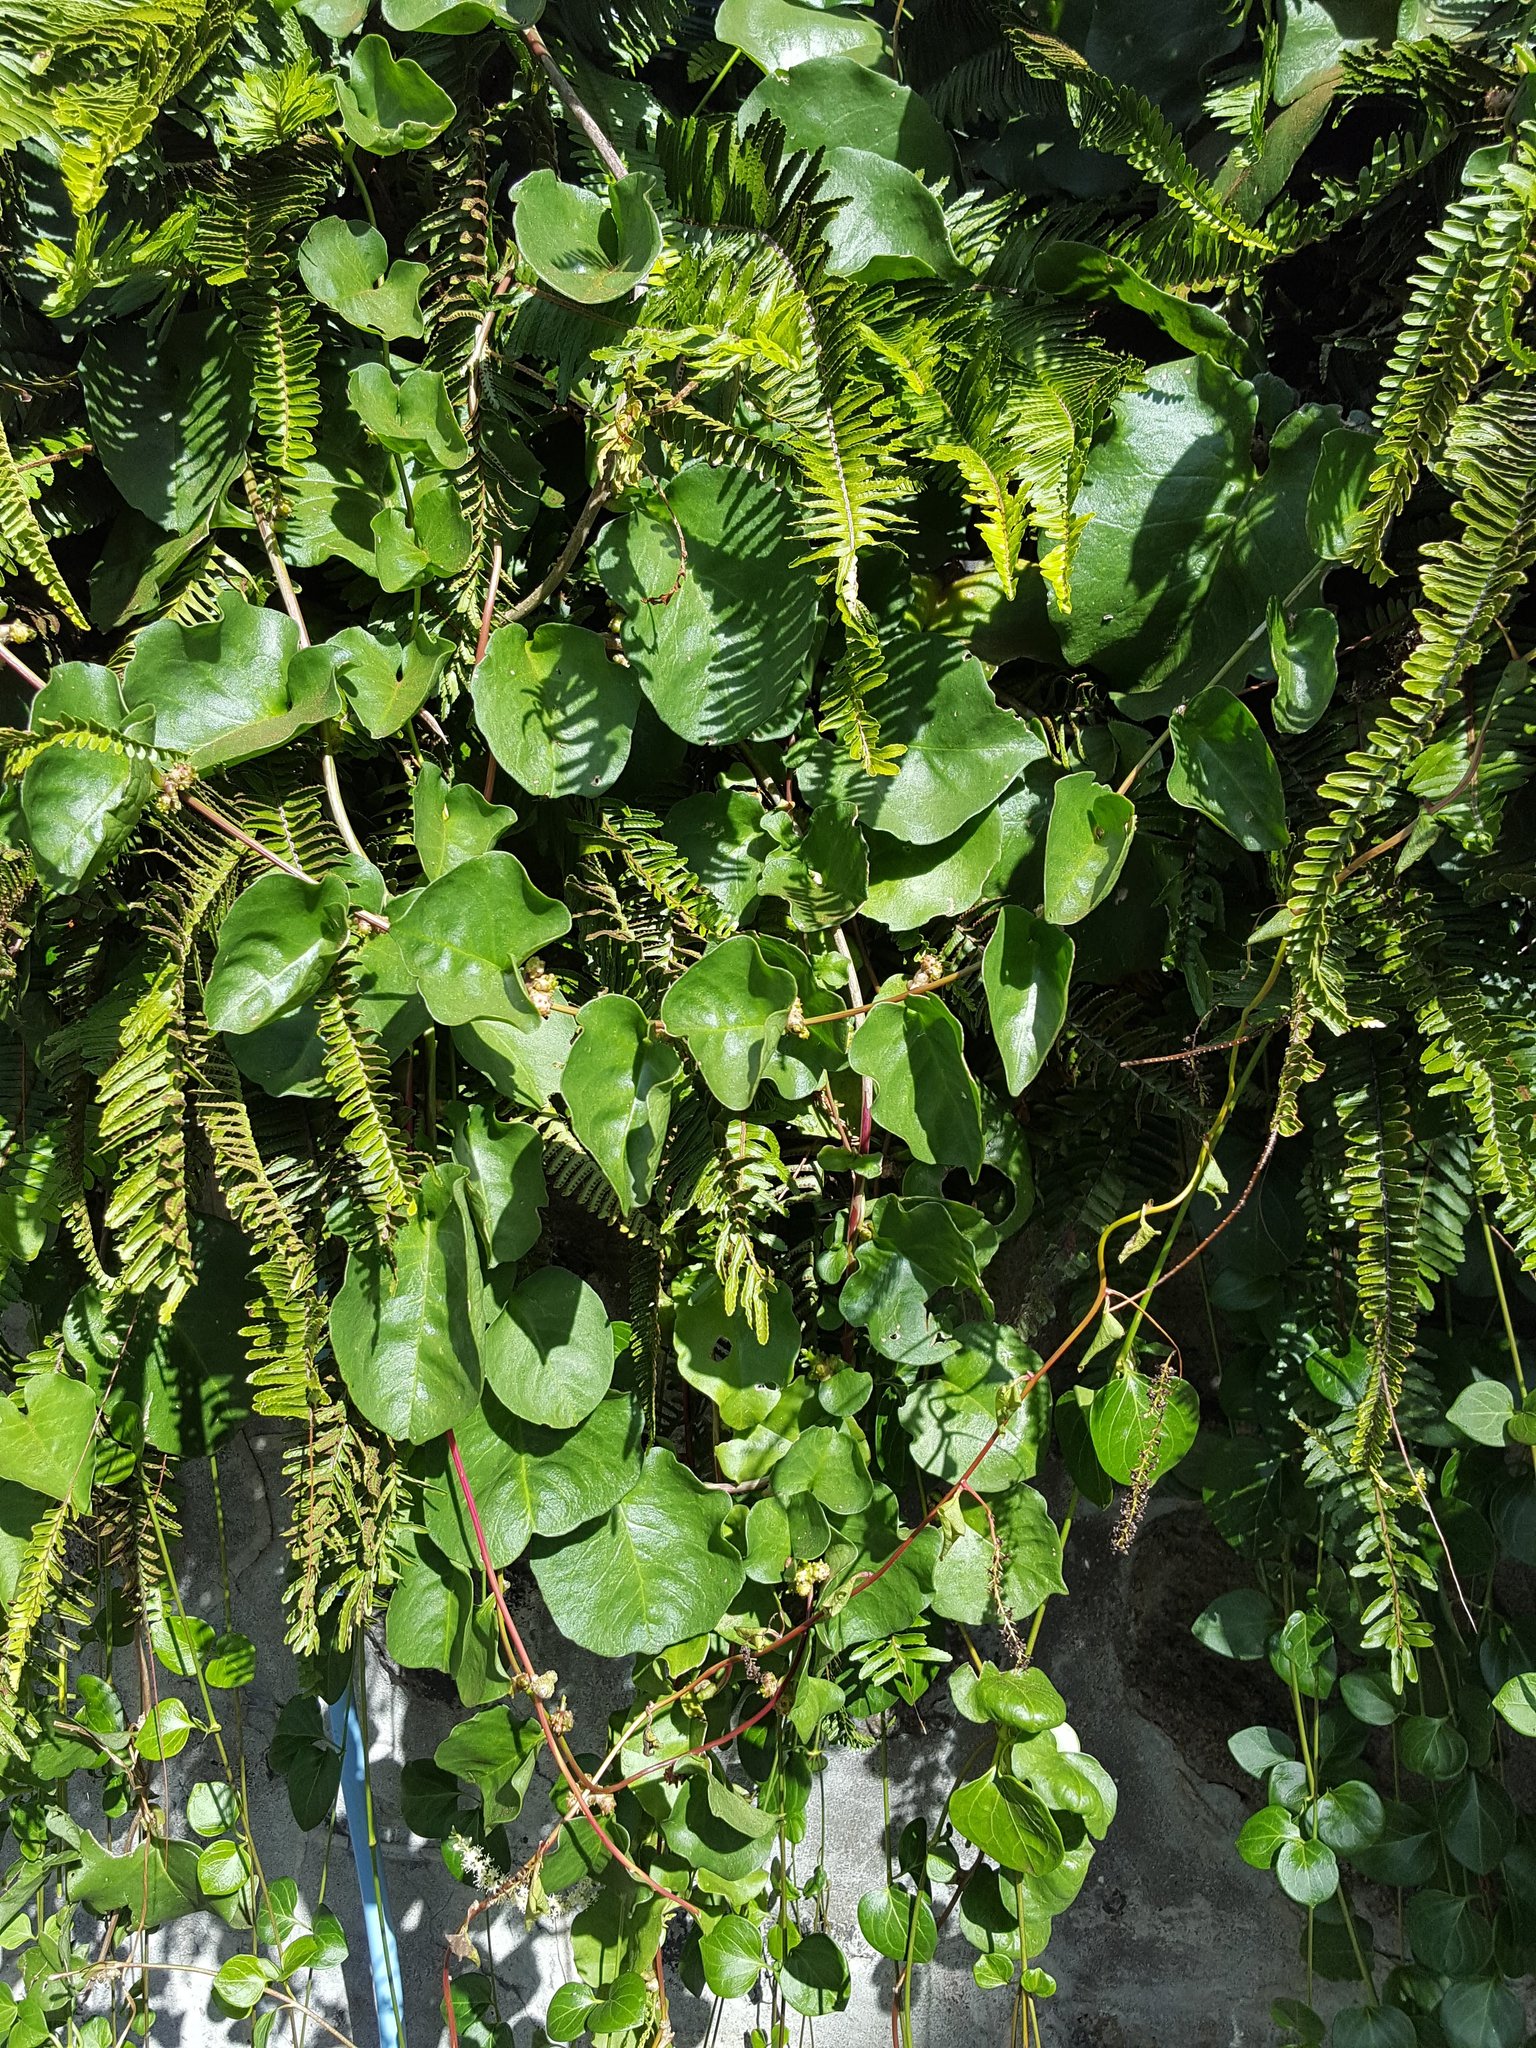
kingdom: Plantae
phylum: Tracheophyta
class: Magnoliopsida
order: Caryophyllales
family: Basellaceae
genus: Anredera
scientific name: Anredera cordifolia
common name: Heartleaf madeiravine
